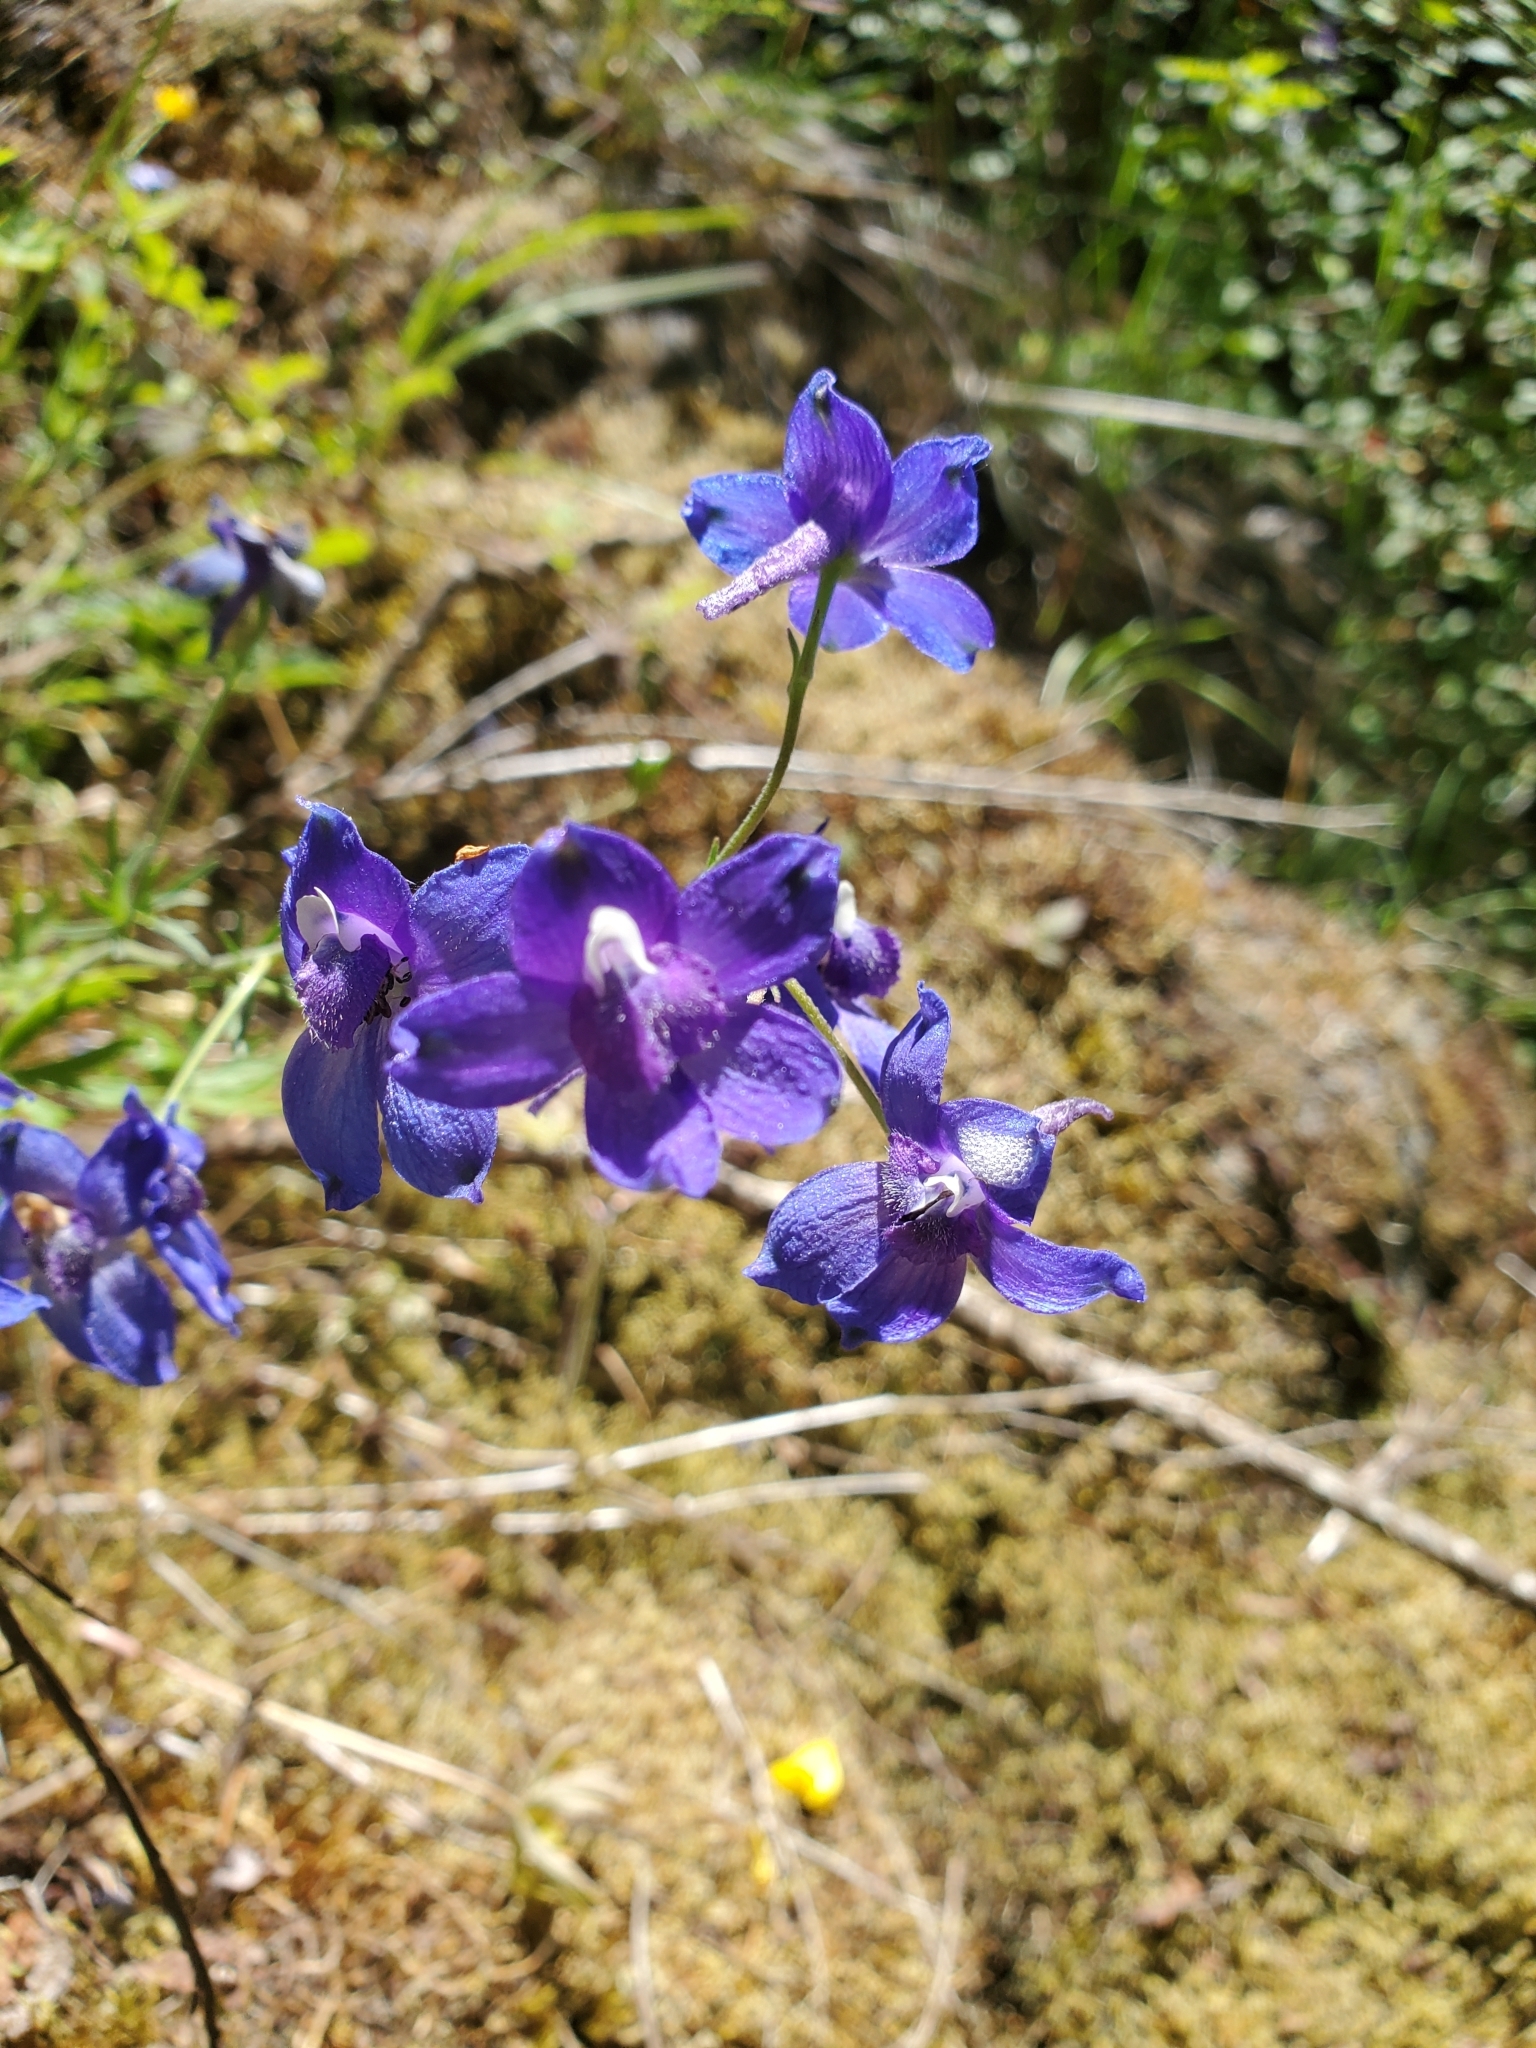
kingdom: Plantae
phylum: Tracheophyta
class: Magnoliopsida
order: Ranunculales
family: Ranunculaceae
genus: Delphinium
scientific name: Delphinium menziesii
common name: Menzies's larkspur
